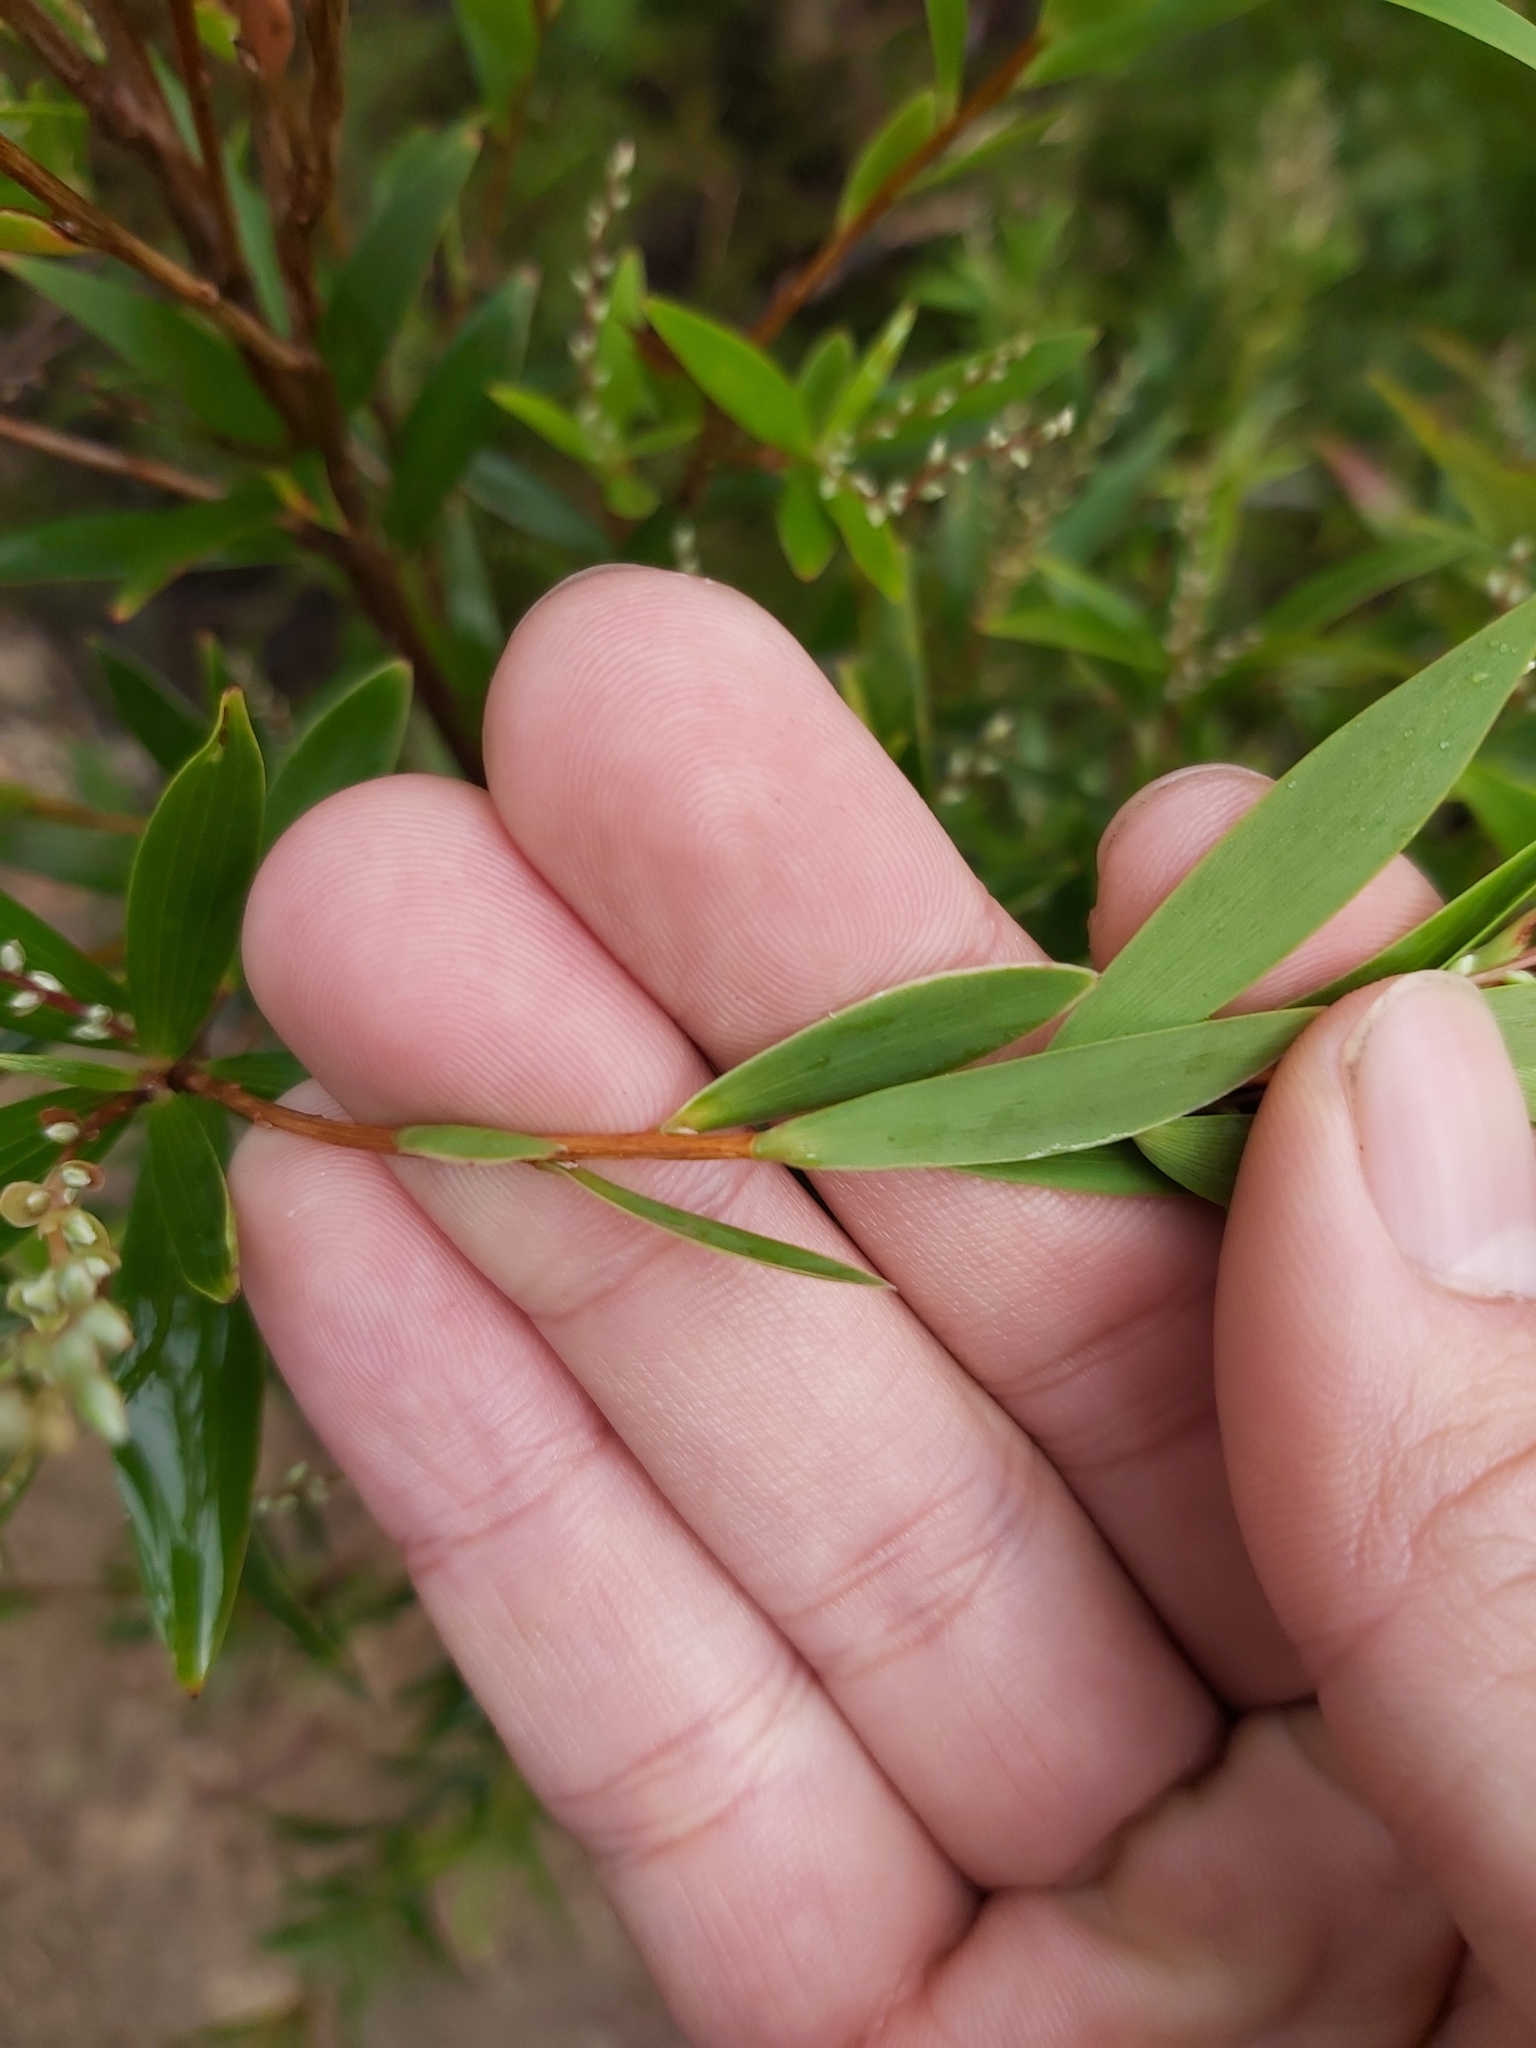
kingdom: Plantae
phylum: Tracheophyta
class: Magnoliopsida
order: Ericales
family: Ericaceae
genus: Leucopogon
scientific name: Leucopogon lanceolatus
